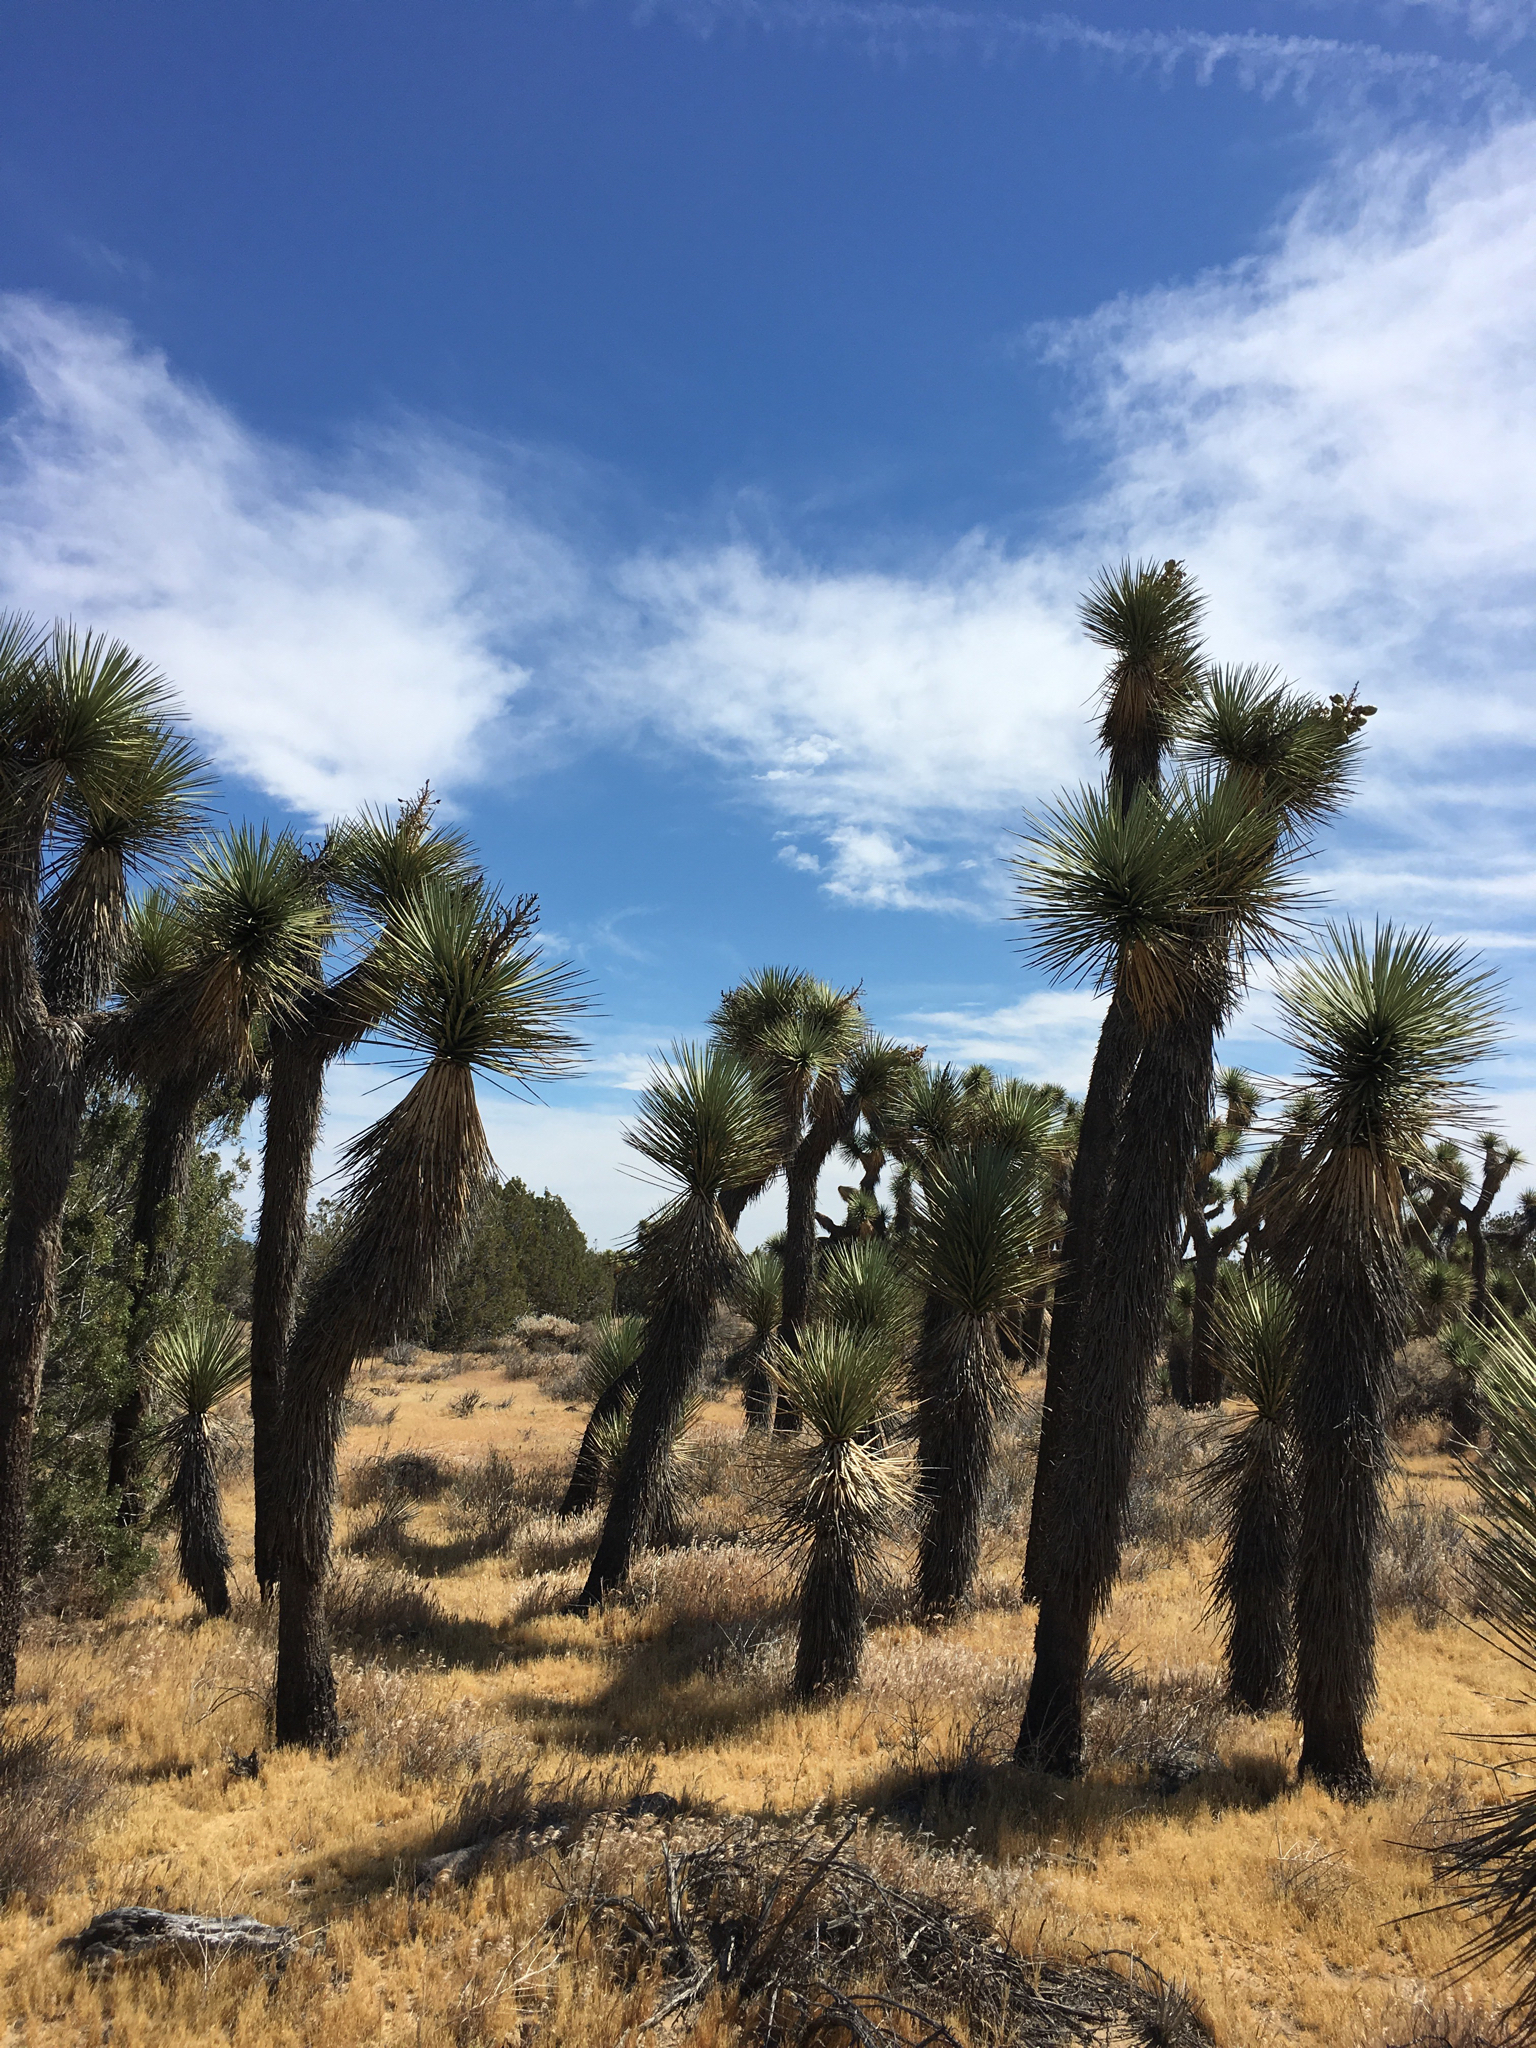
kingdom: Plantae
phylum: Tracheophyta
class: Liliopsida
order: Asparagales
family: Asparagaceae
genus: Yucca
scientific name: Yucca brevifolia
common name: Joshua tree
